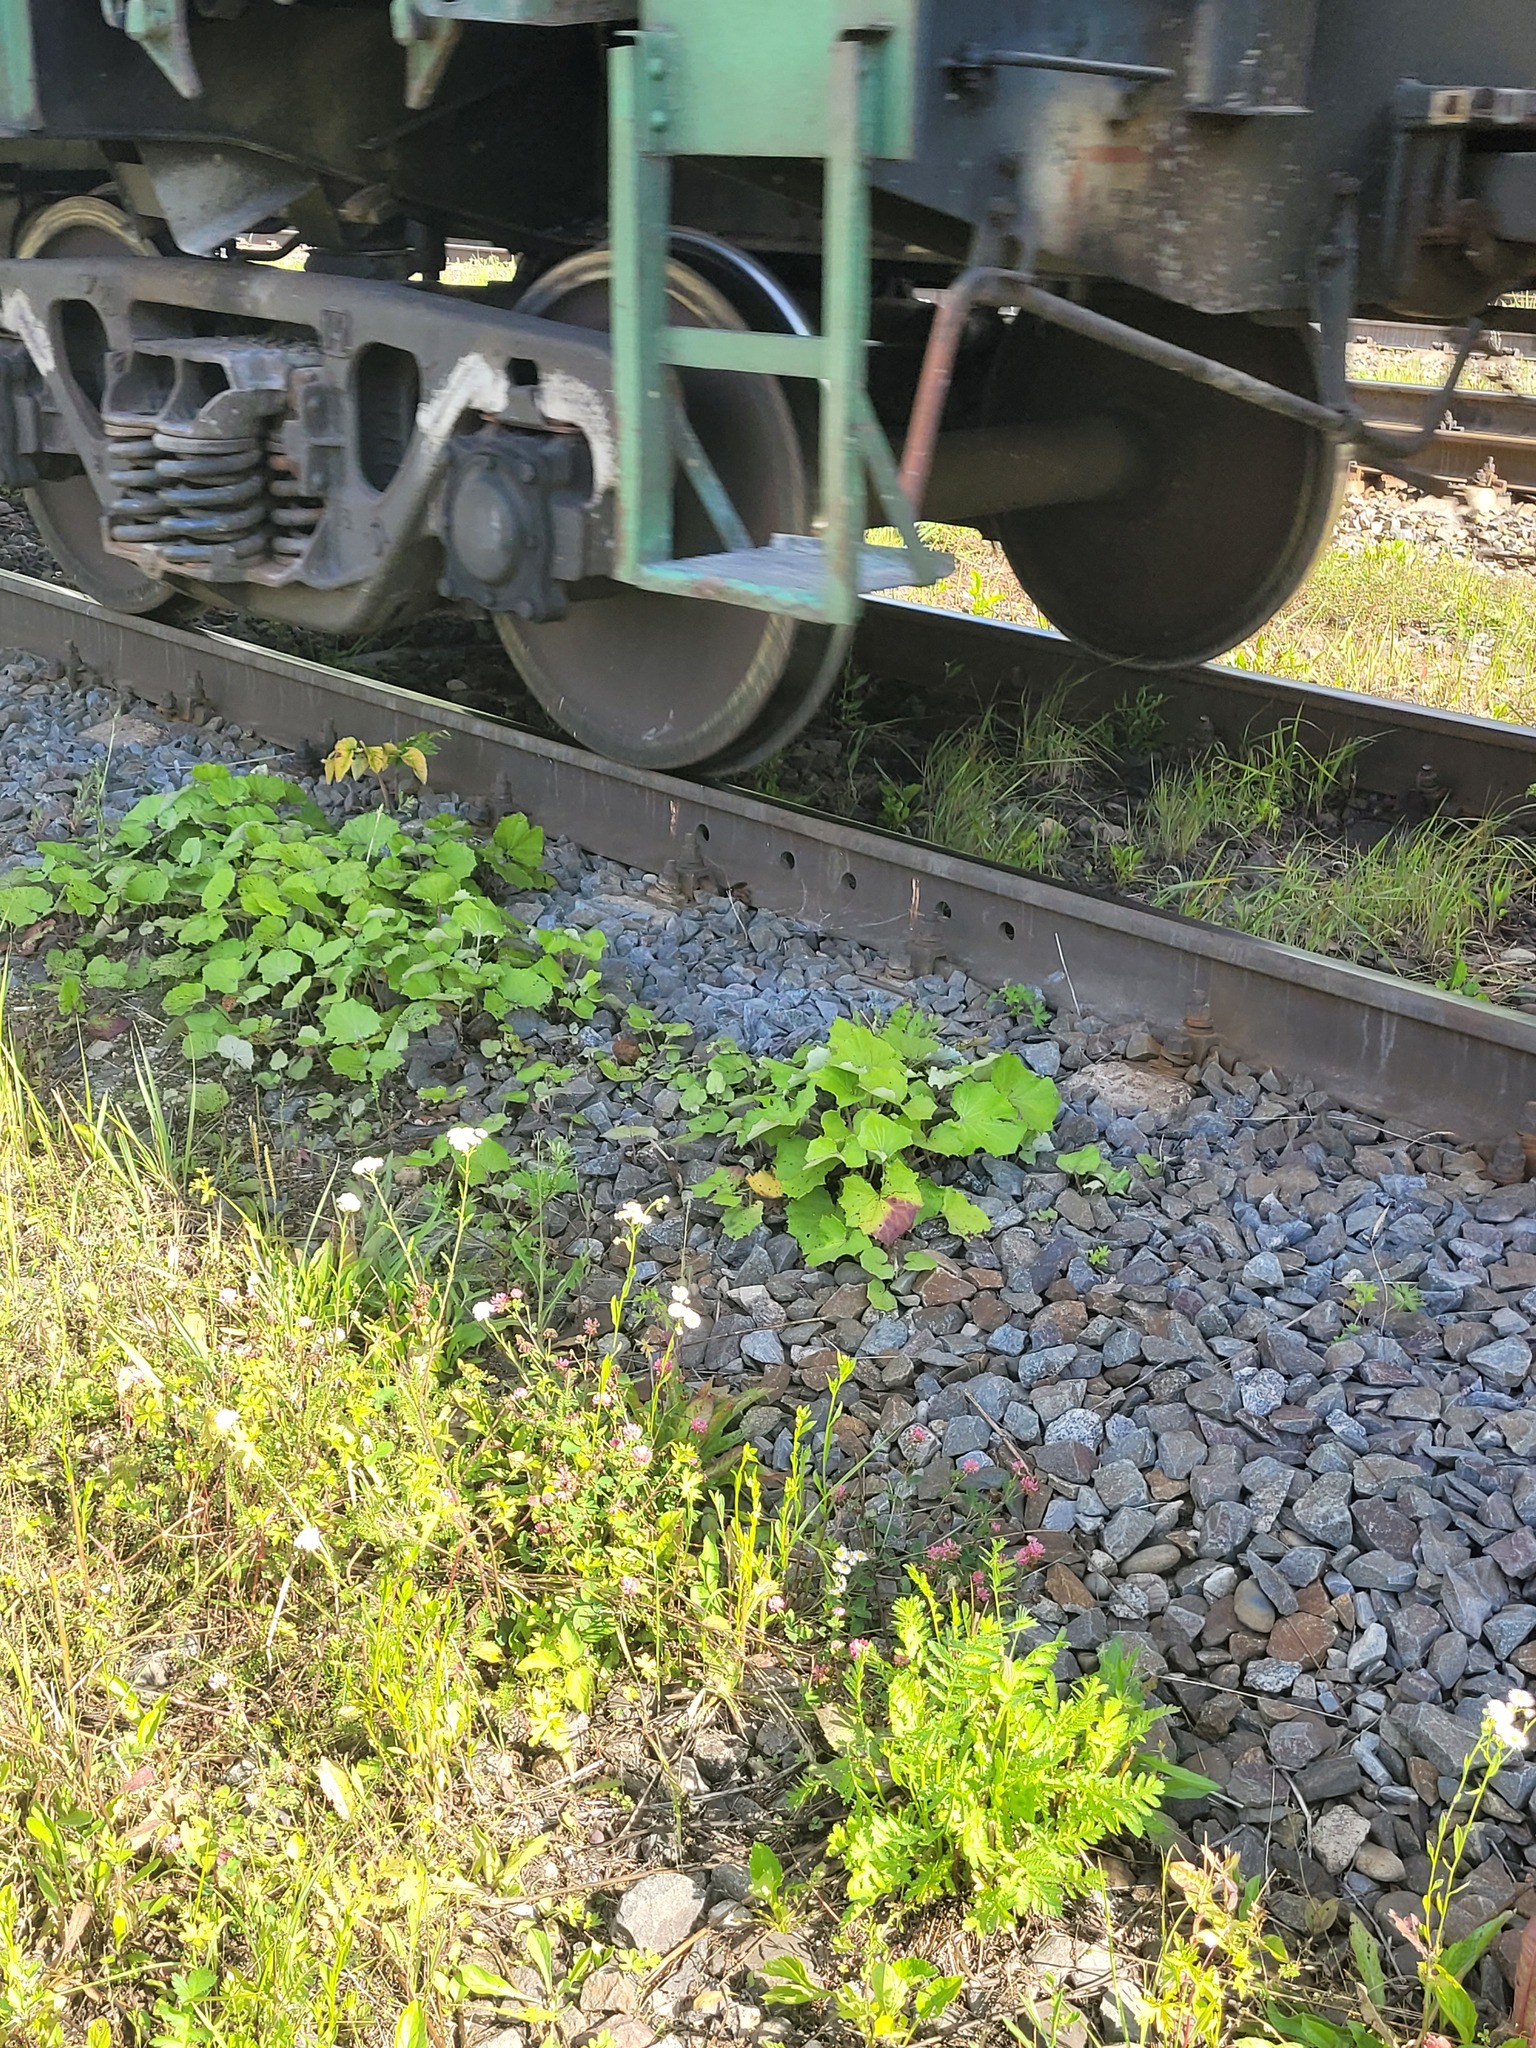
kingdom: Plantae
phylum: Tracheophyta
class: Magnoliopsida
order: Asterales
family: Asteraceae
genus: Tussilago
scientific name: Tussilago farfara
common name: Coltsfoot
